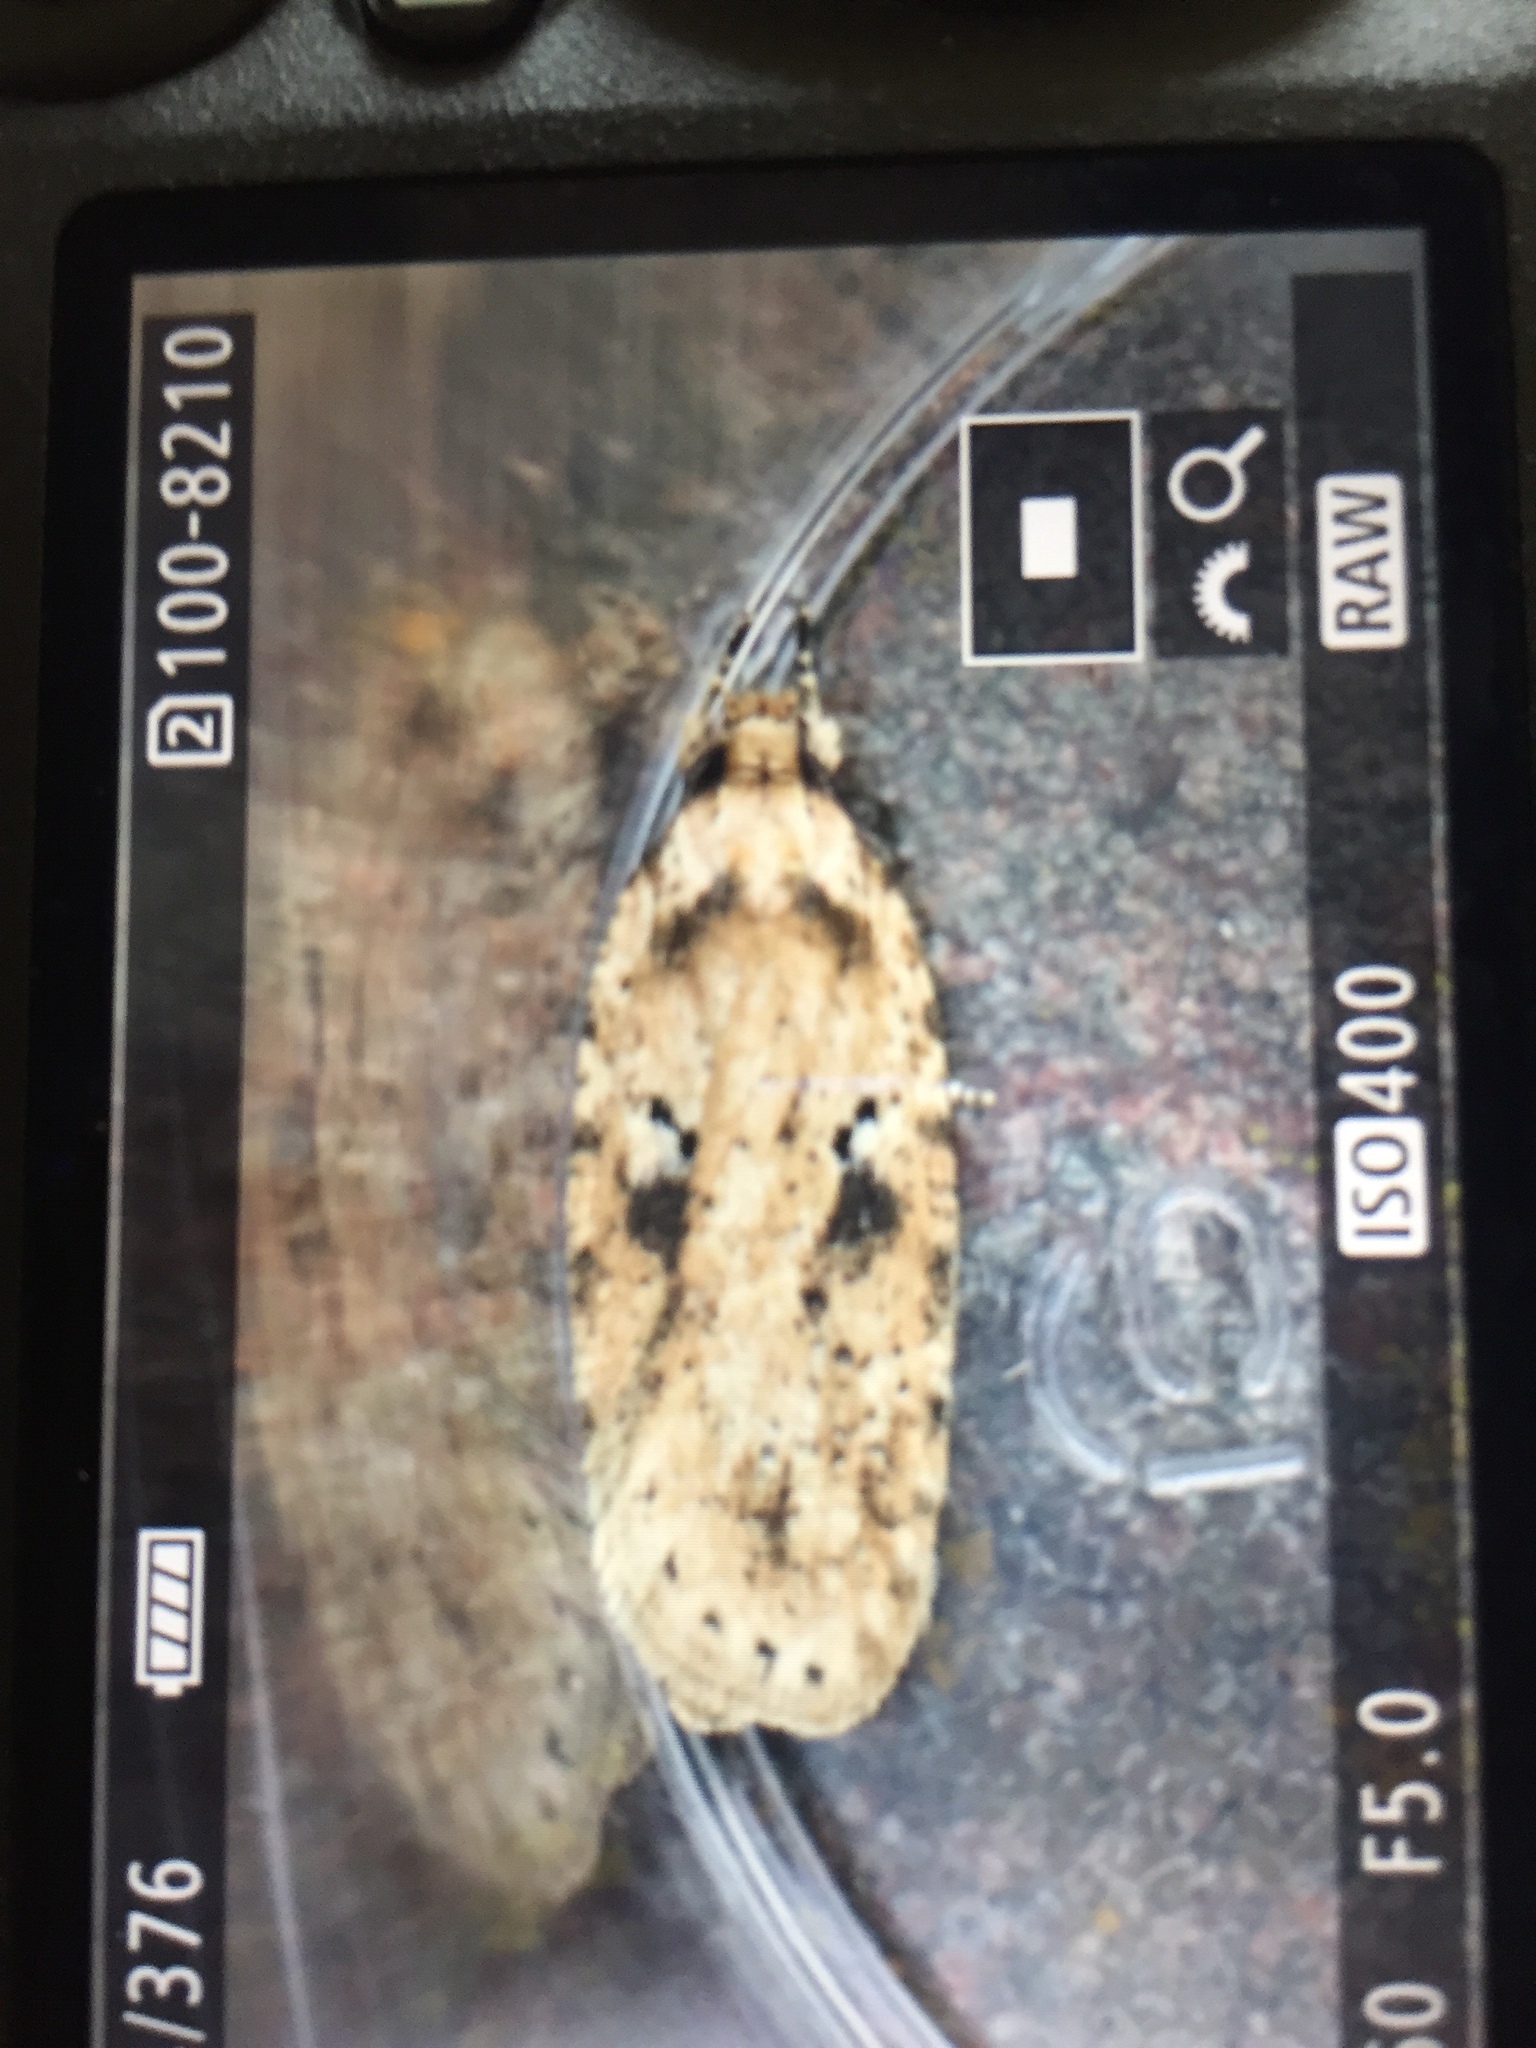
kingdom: Animalia
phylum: Arthropoda
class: Insecta
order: Lepidoptera
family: Depressariidae
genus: Agonopterix
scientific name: Agonopterix arenella
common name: Brindled flat-body
